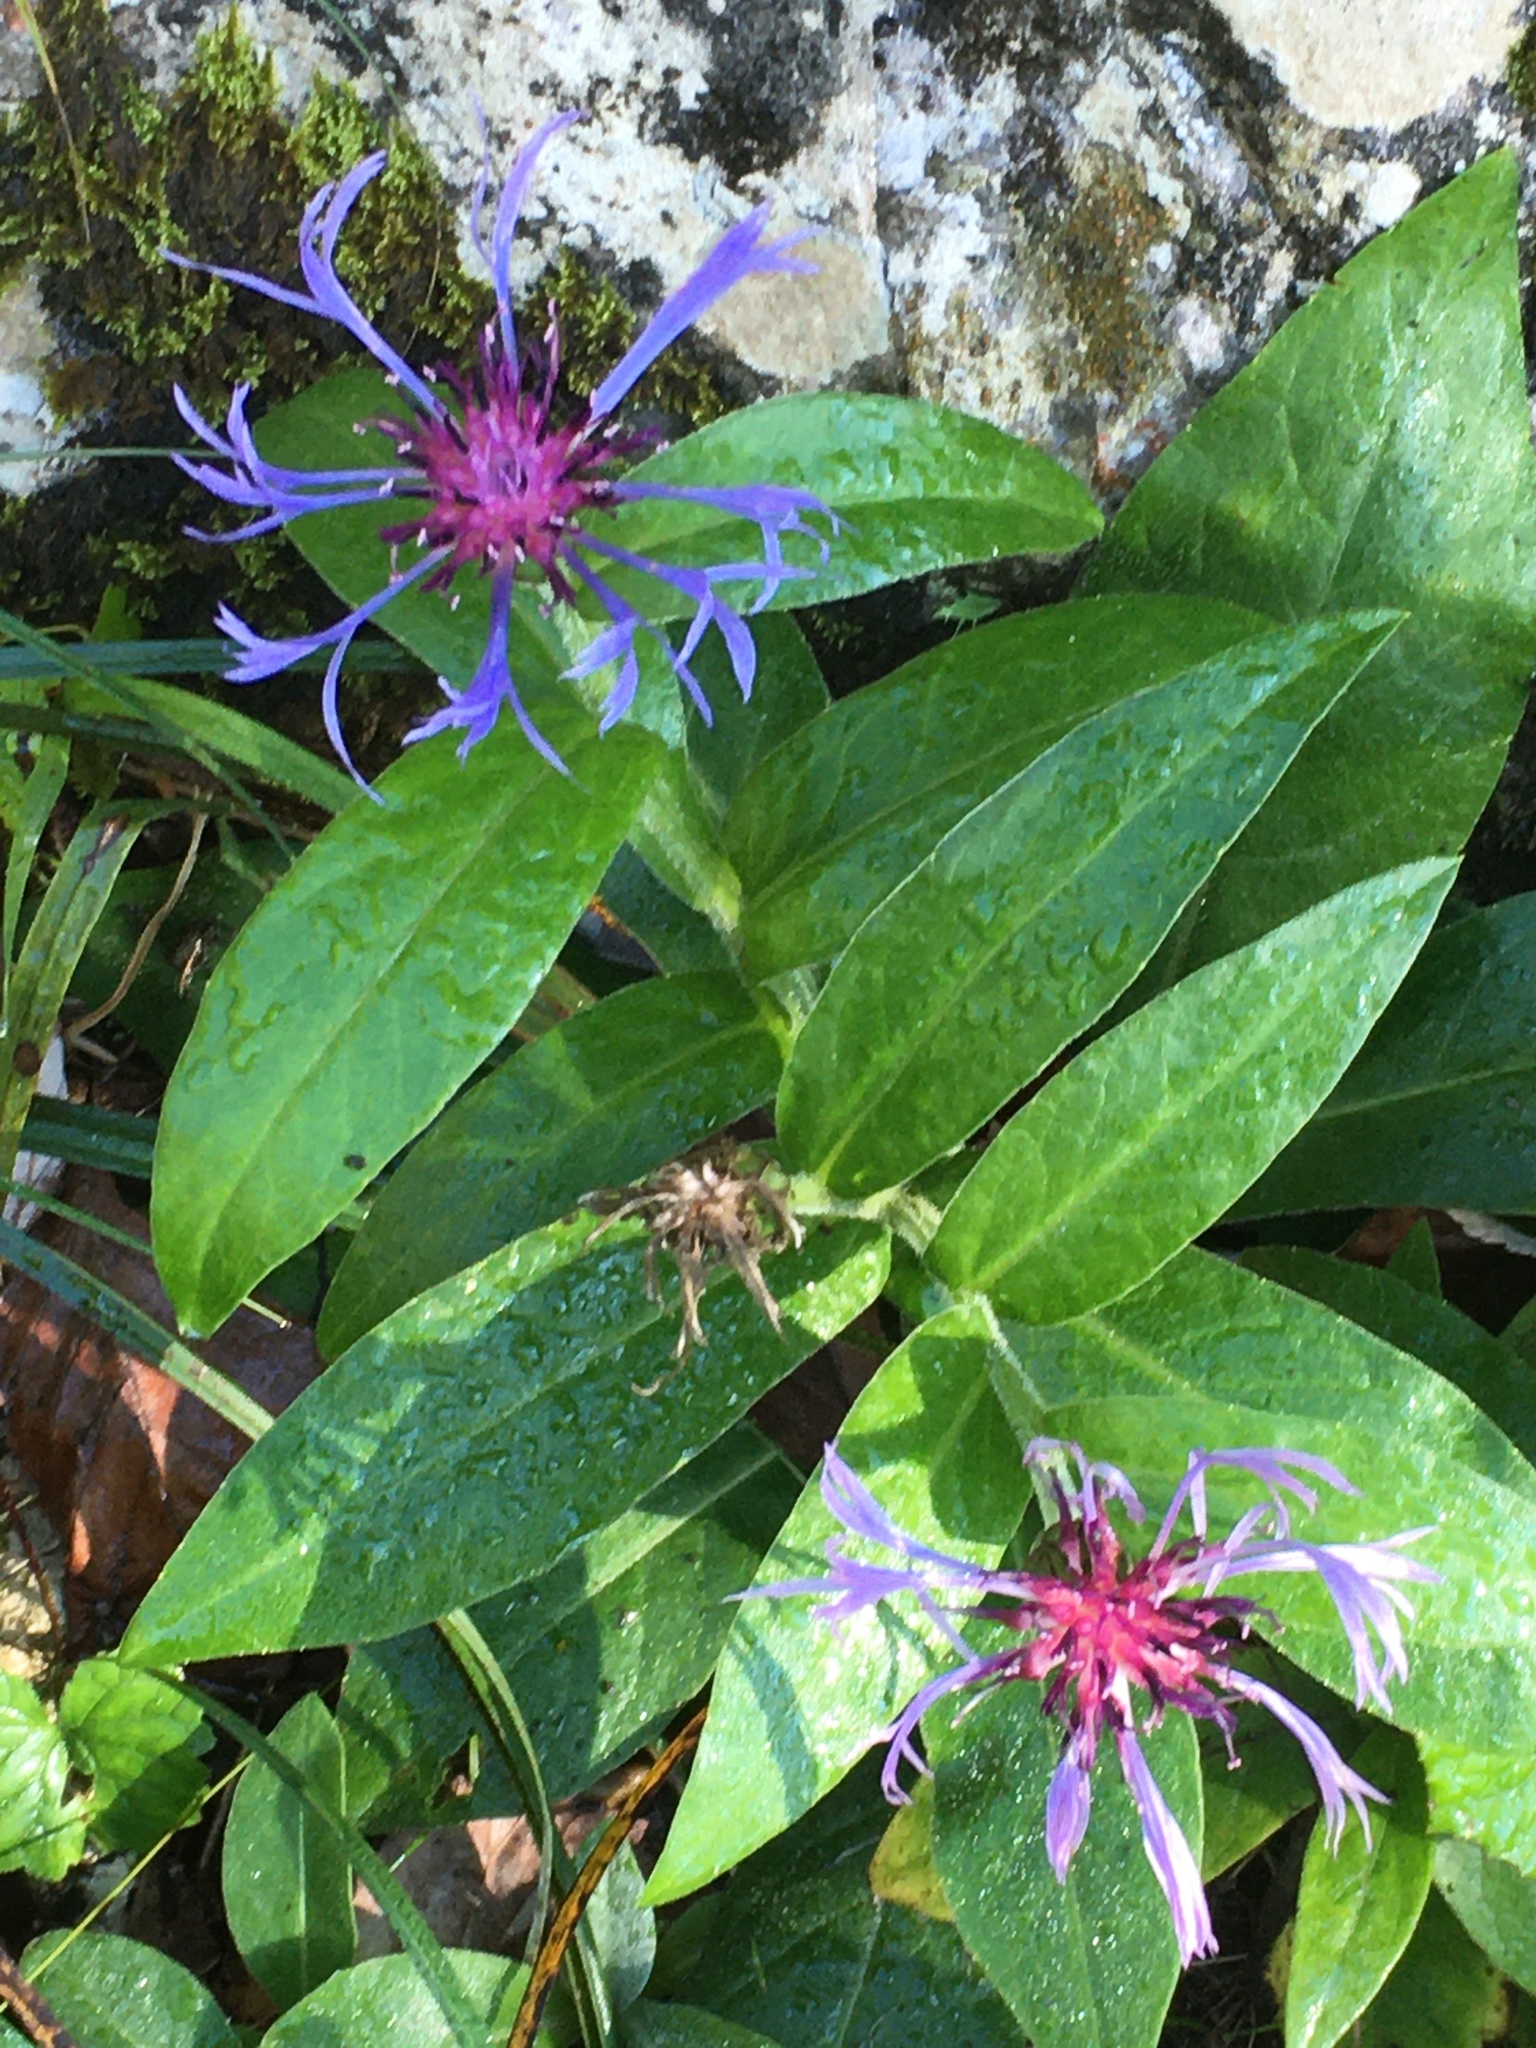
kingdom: Plantae
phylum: Tracheophyta
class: Magnoliopsida
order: Asterales
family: Asteraceae
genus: Centaurea
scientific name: Centaurea montana
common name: Perennial cornflower
